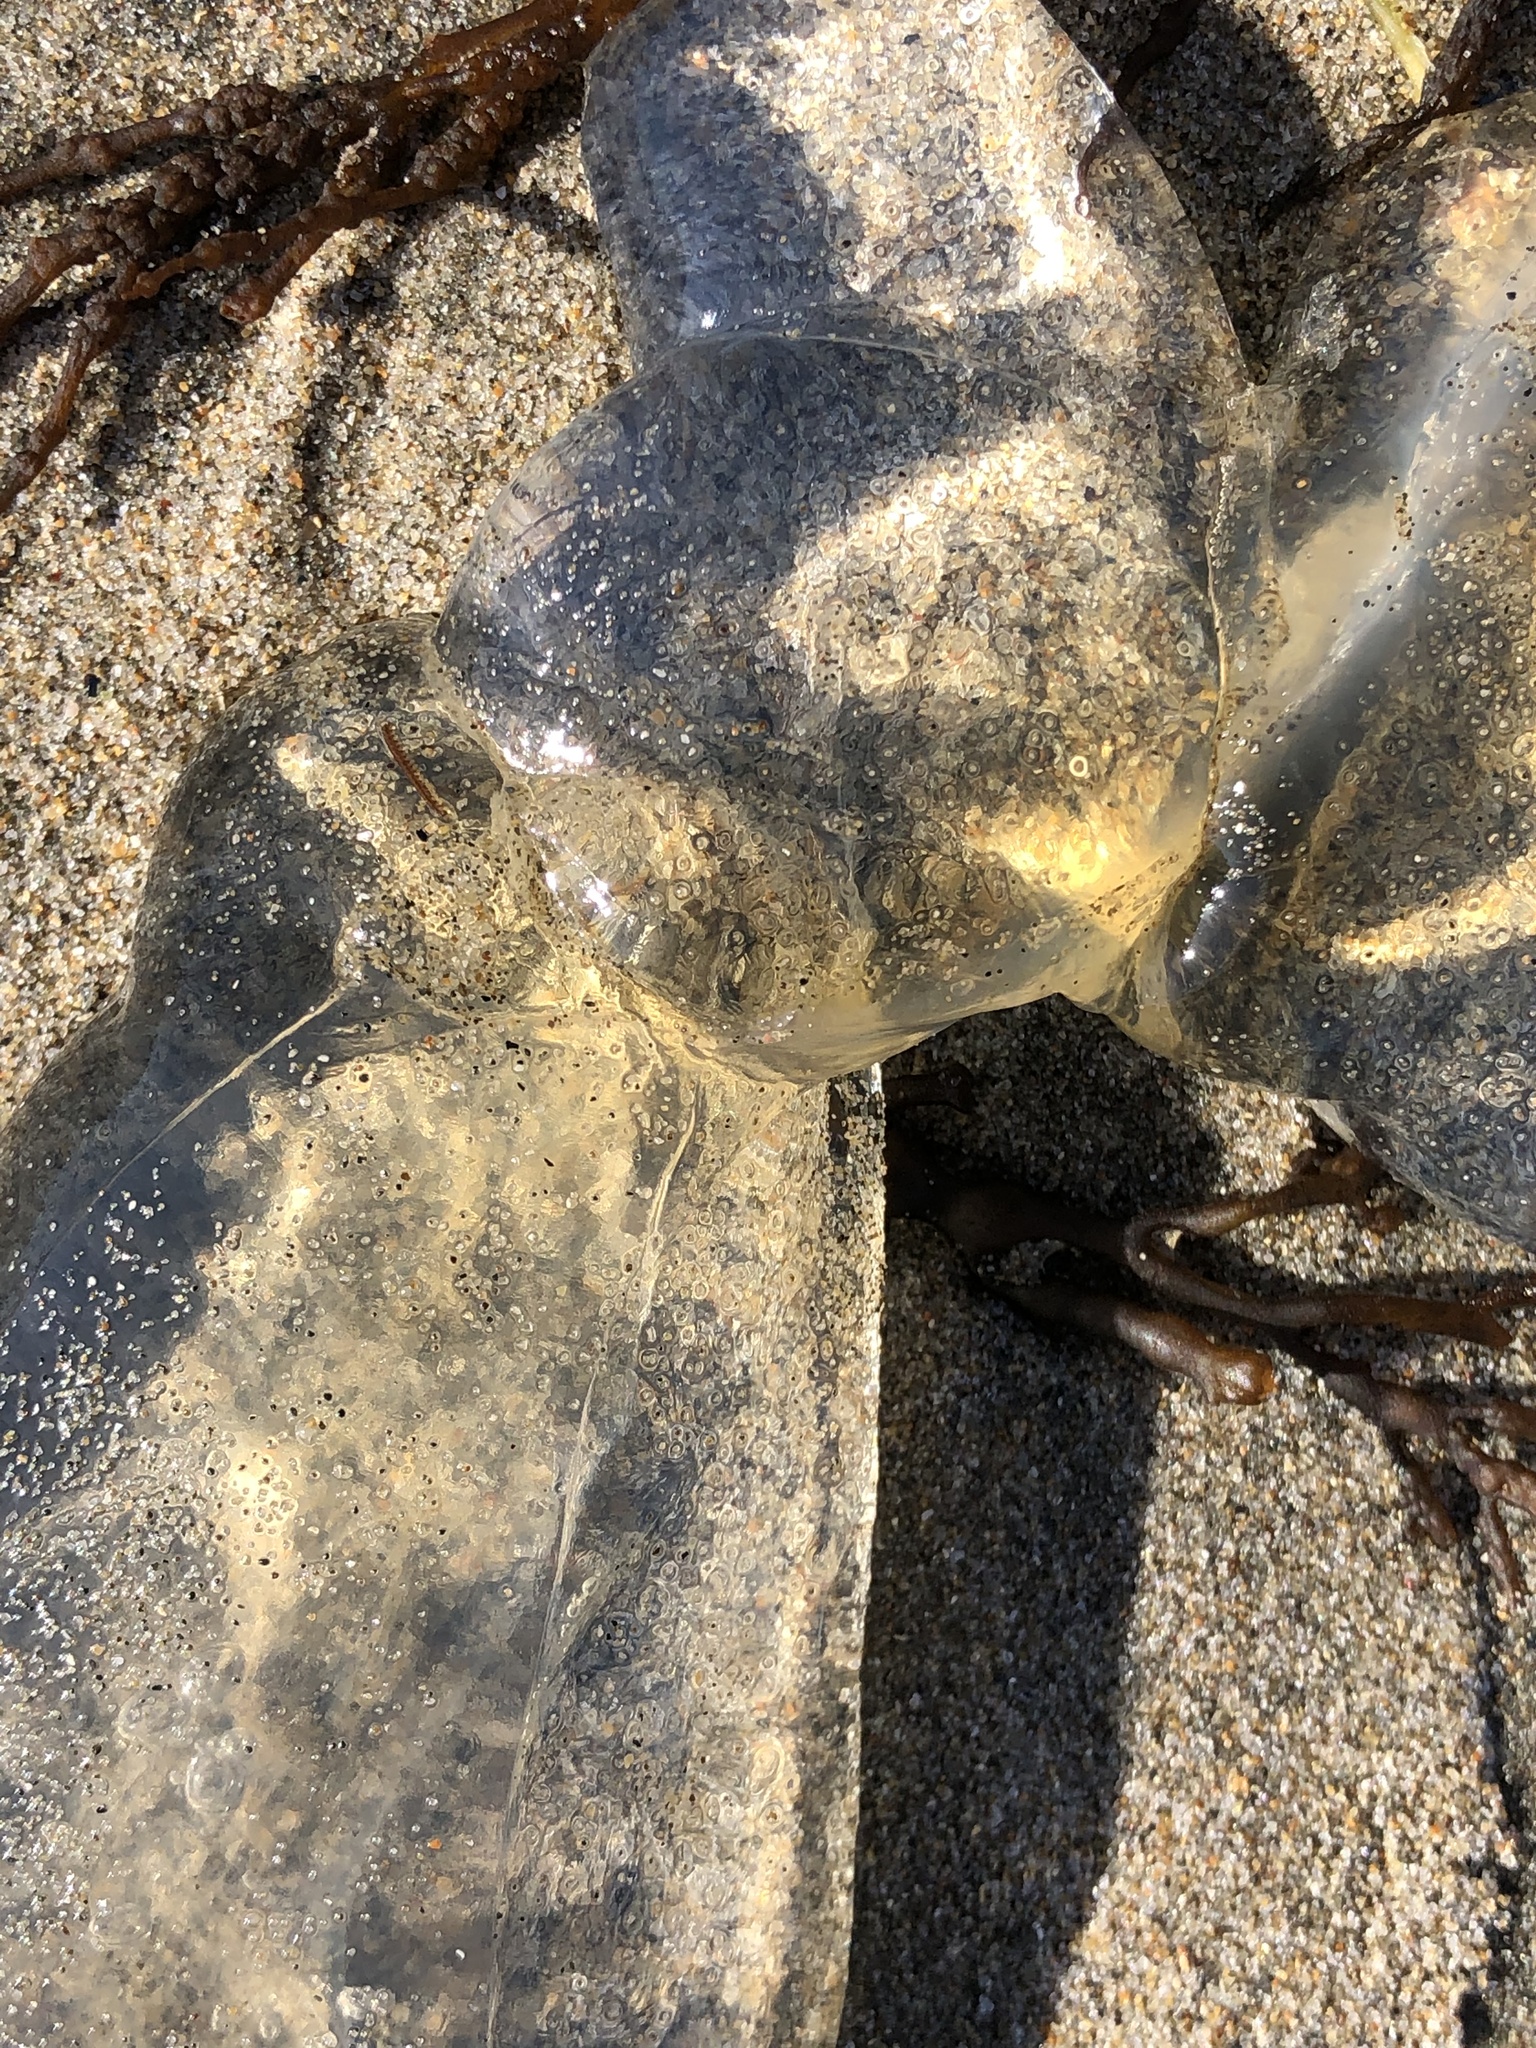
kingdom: Animalia
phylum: Cnidaria
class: Scyphozoa
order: Semaeostomeae
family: Pelagiidae
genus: Chrysaora
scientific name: Chrysaora fuscescens
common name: Sea nettle
